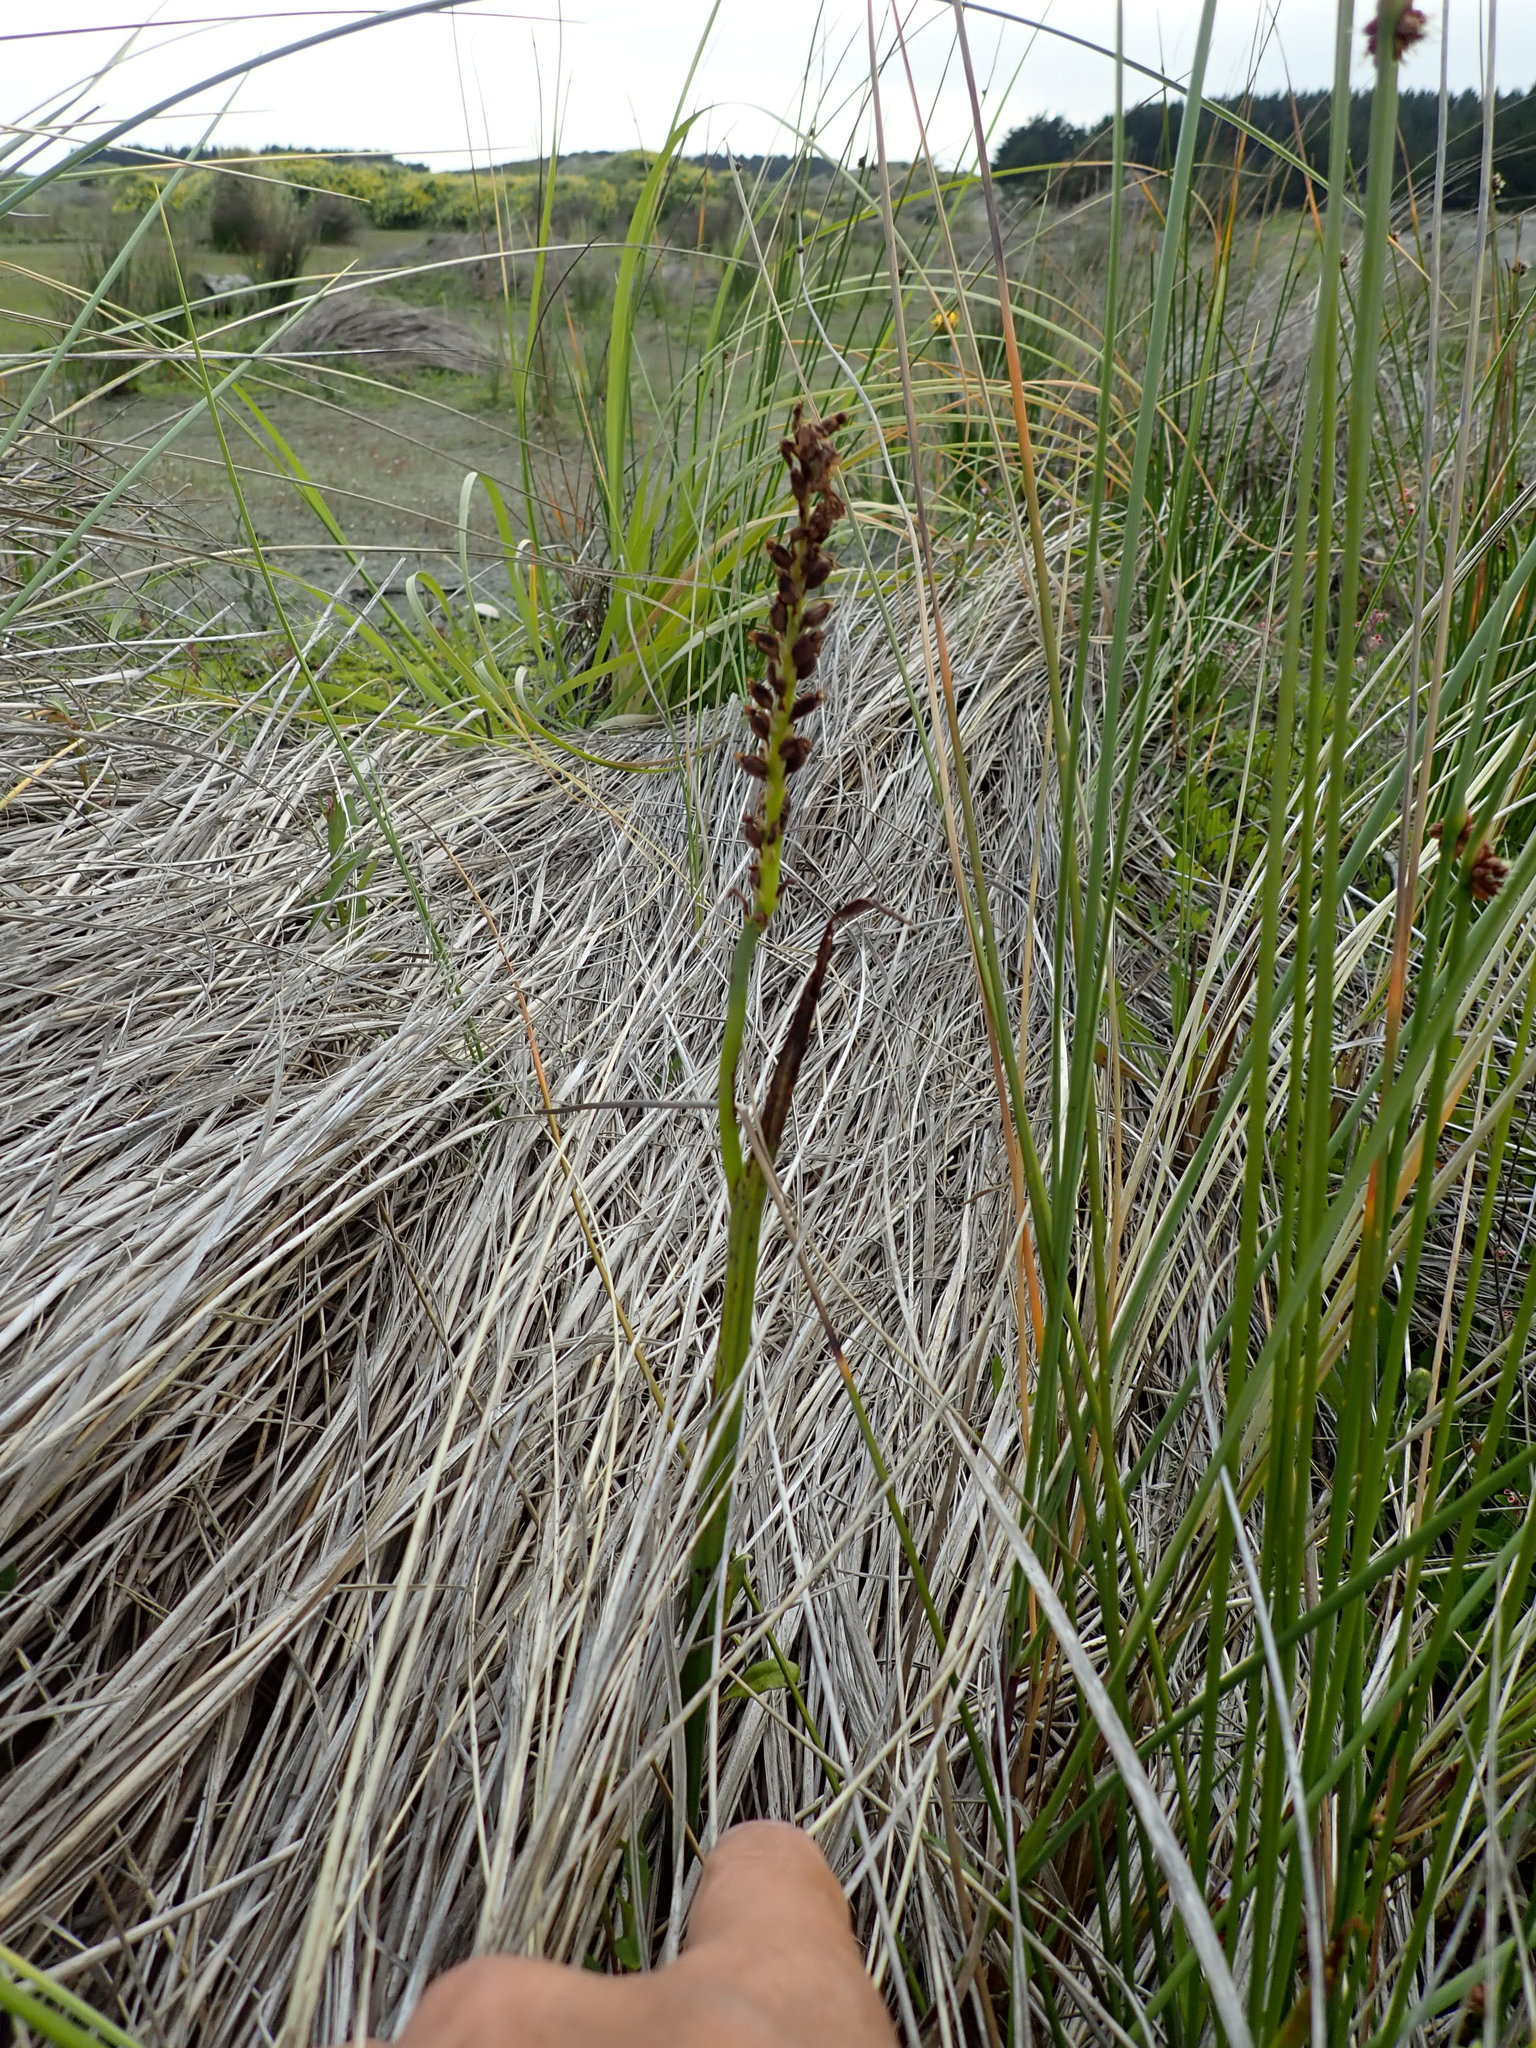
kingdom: Plantae
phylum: Tracheophyta
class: Liliopsida
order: Asparagales
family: Orchidaceae
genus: Microtis
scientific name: Microtis unifolia
